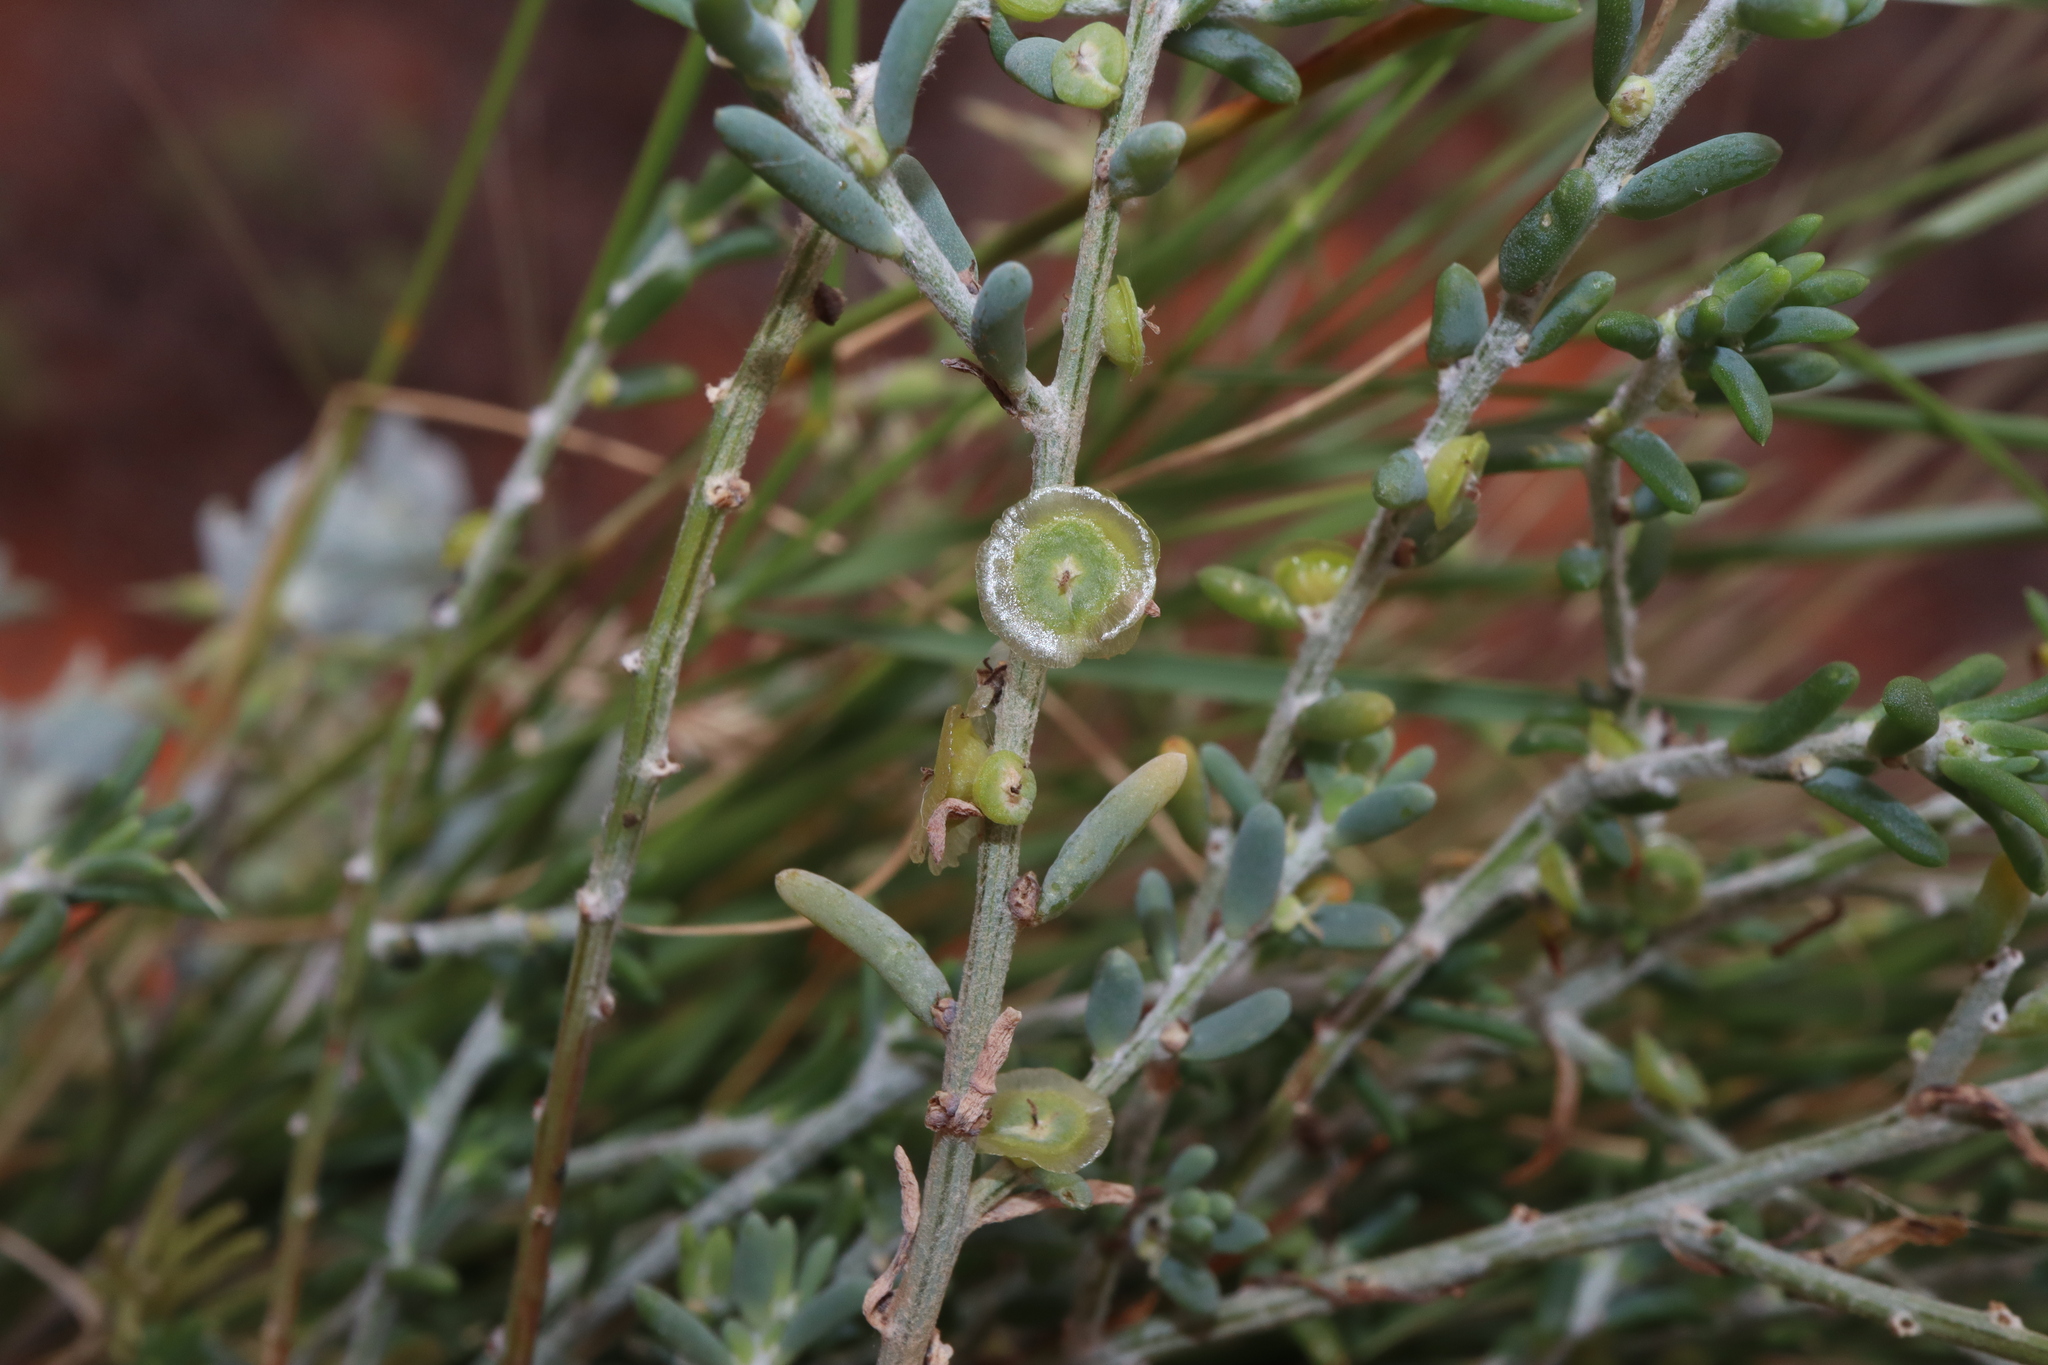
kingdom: Plantae
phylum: Tracheophyta
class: Magnoliopsida
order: Caryophyllales
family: Amaranthaceae
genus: Maireana
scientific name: Maireana microcarpa
